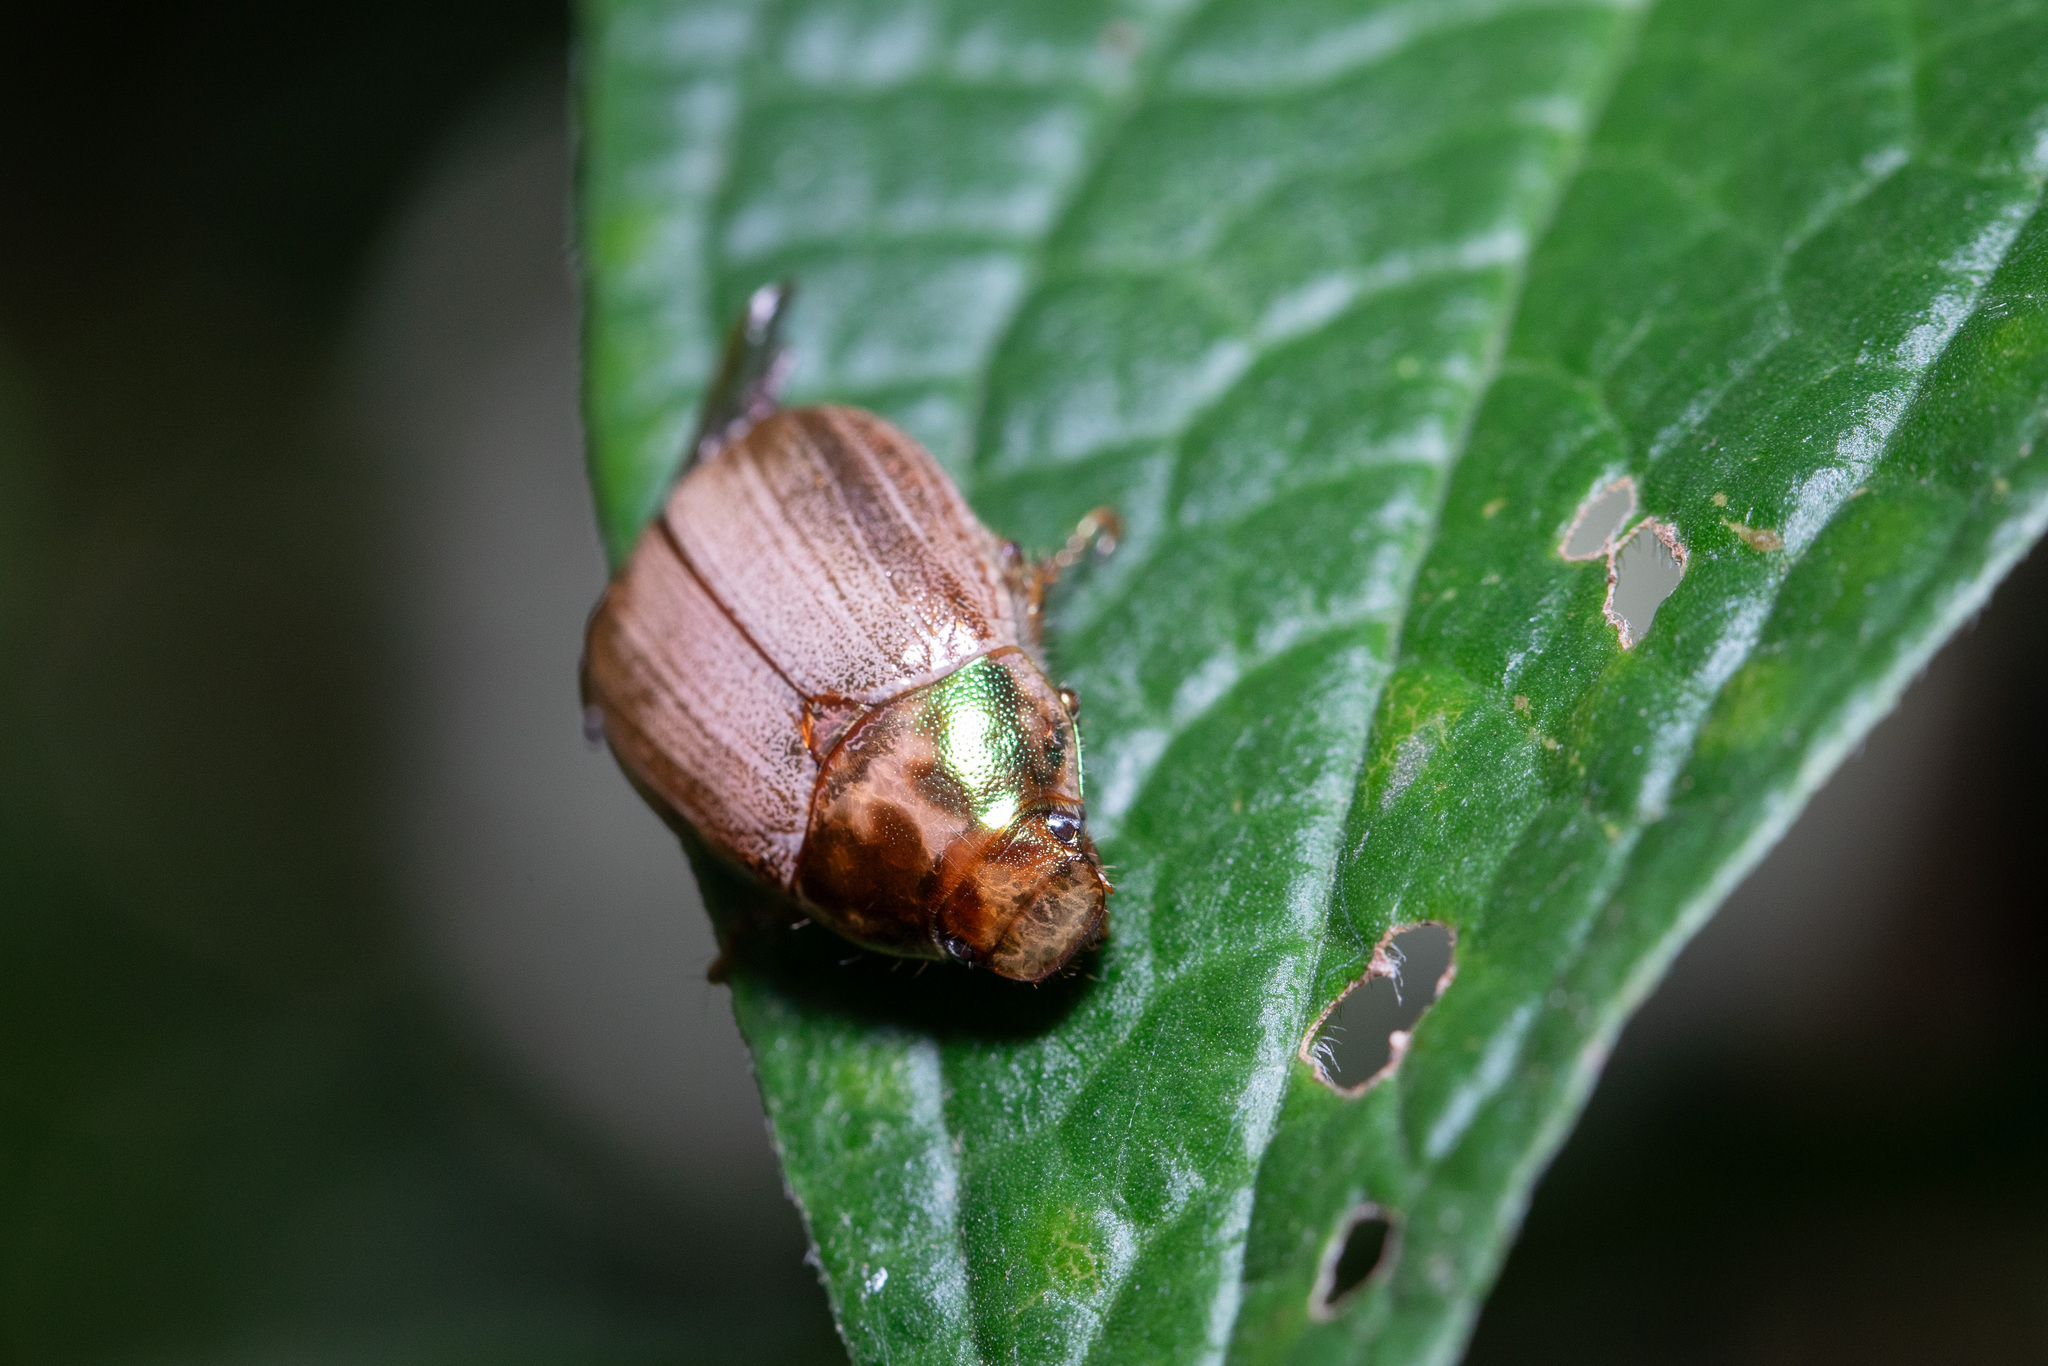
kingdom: Animalia
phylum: Arthropoda
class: Insecta
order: Coleoptera
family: Scarabaeidae
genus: Callistethus
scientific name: Callistethus marginatus
